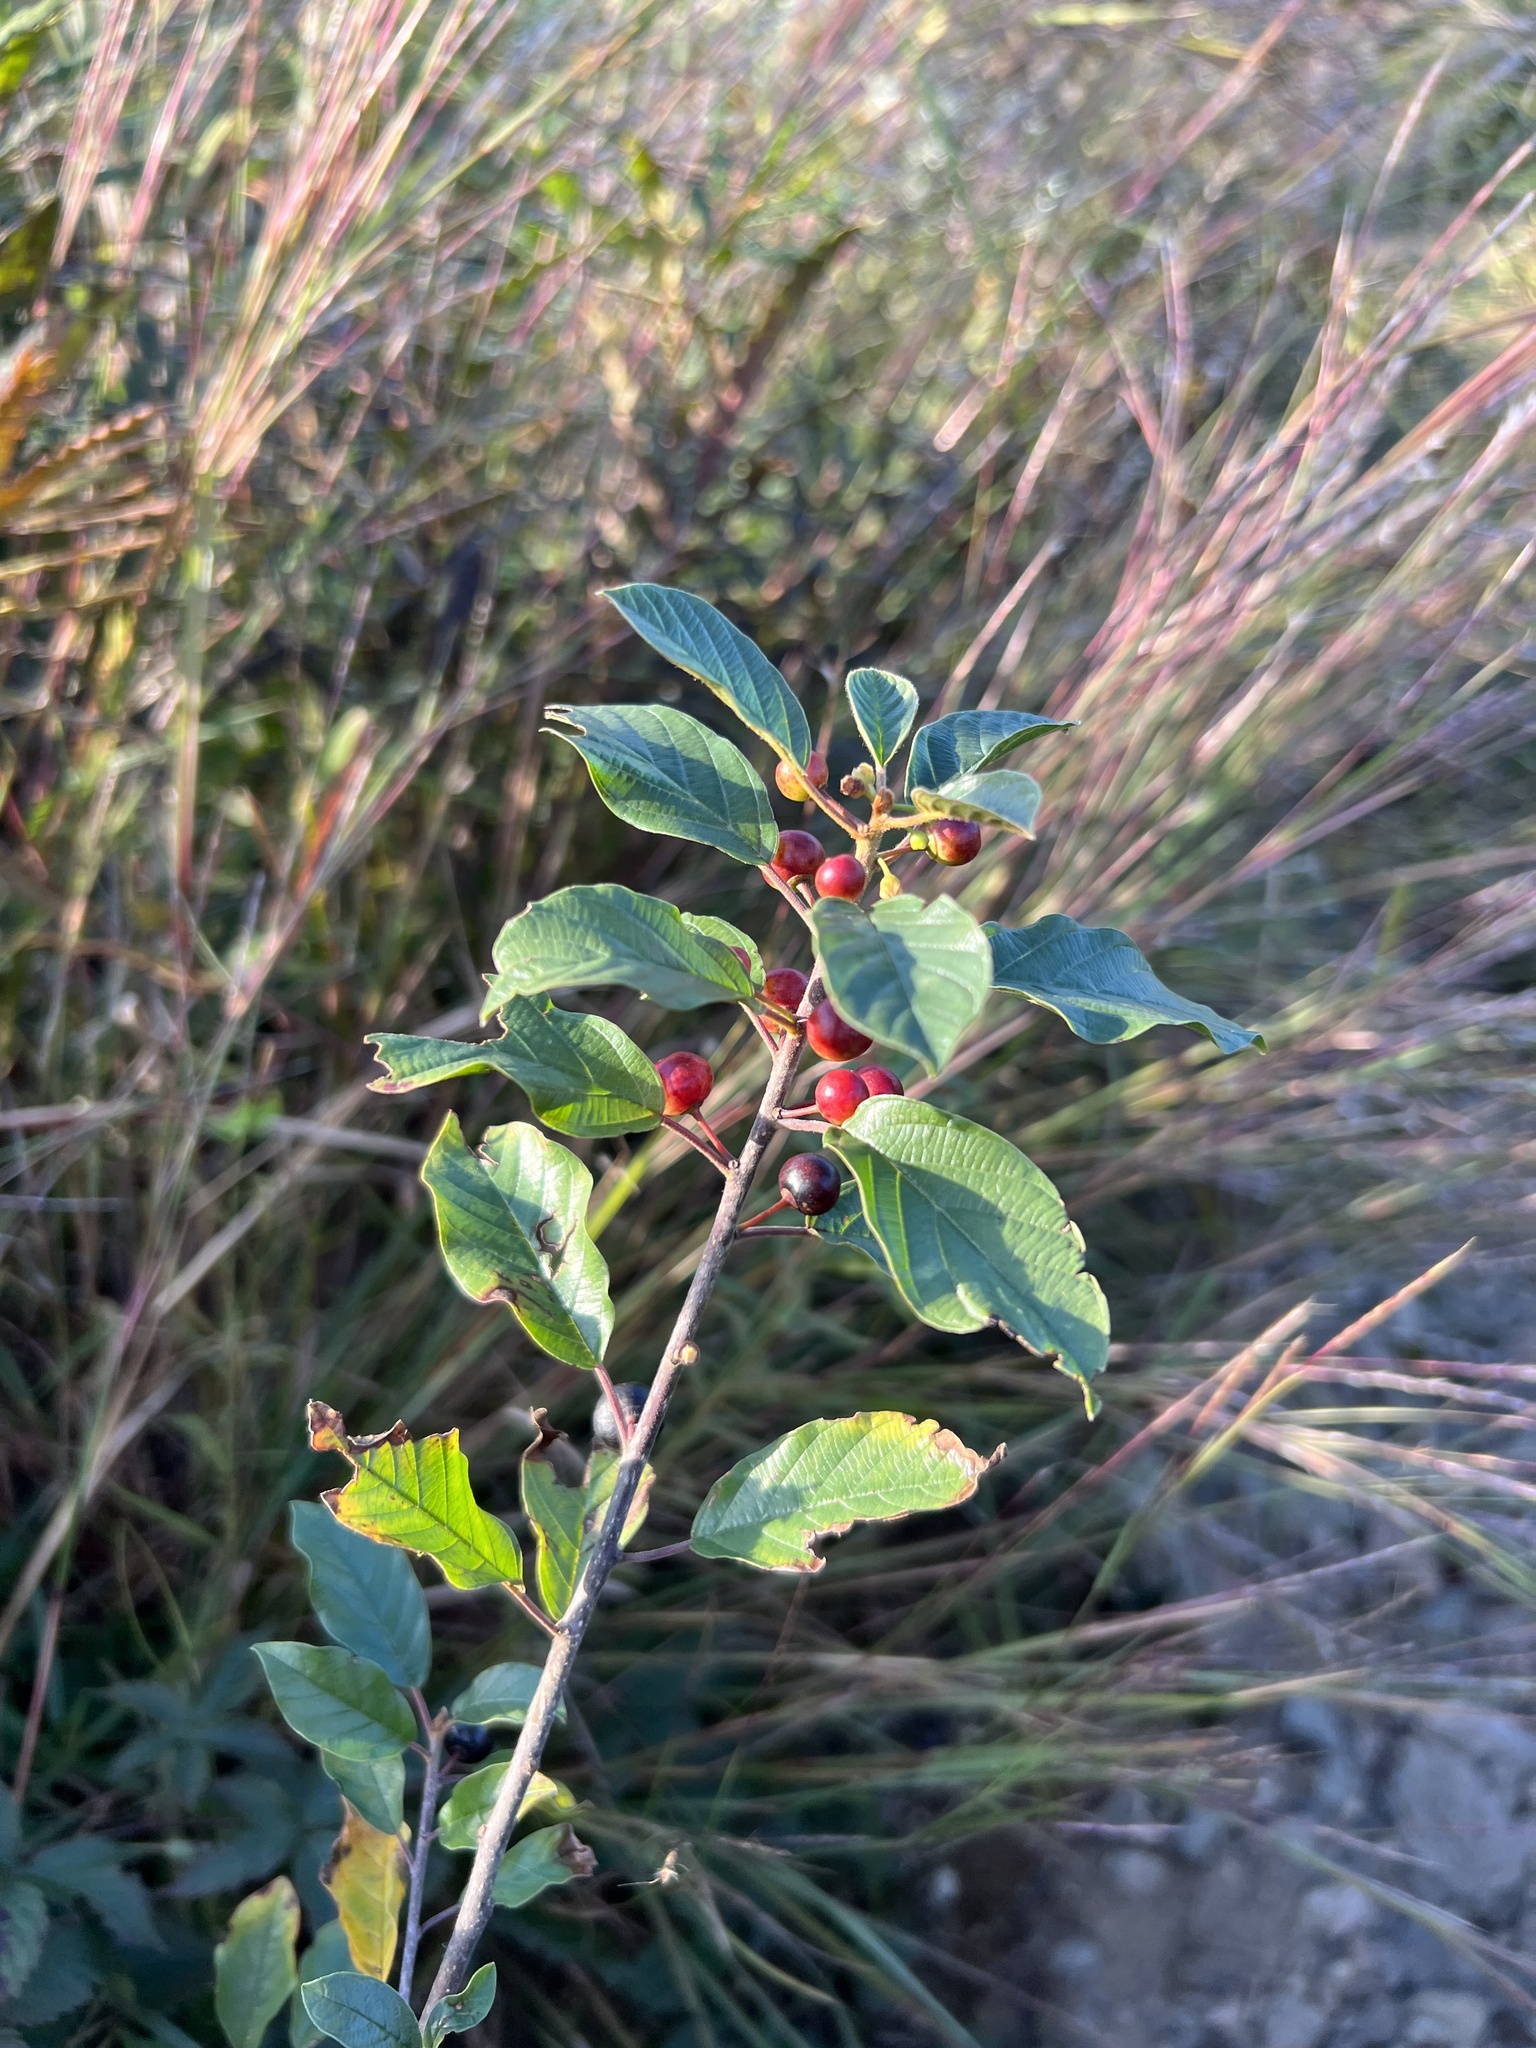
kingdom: Plantae
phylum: Tracheophyta
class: Magnoliopsida
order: Rosales
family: Rhamnaceae
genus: Frangula
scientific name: Frangula alnus
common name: Alder buckthorn
